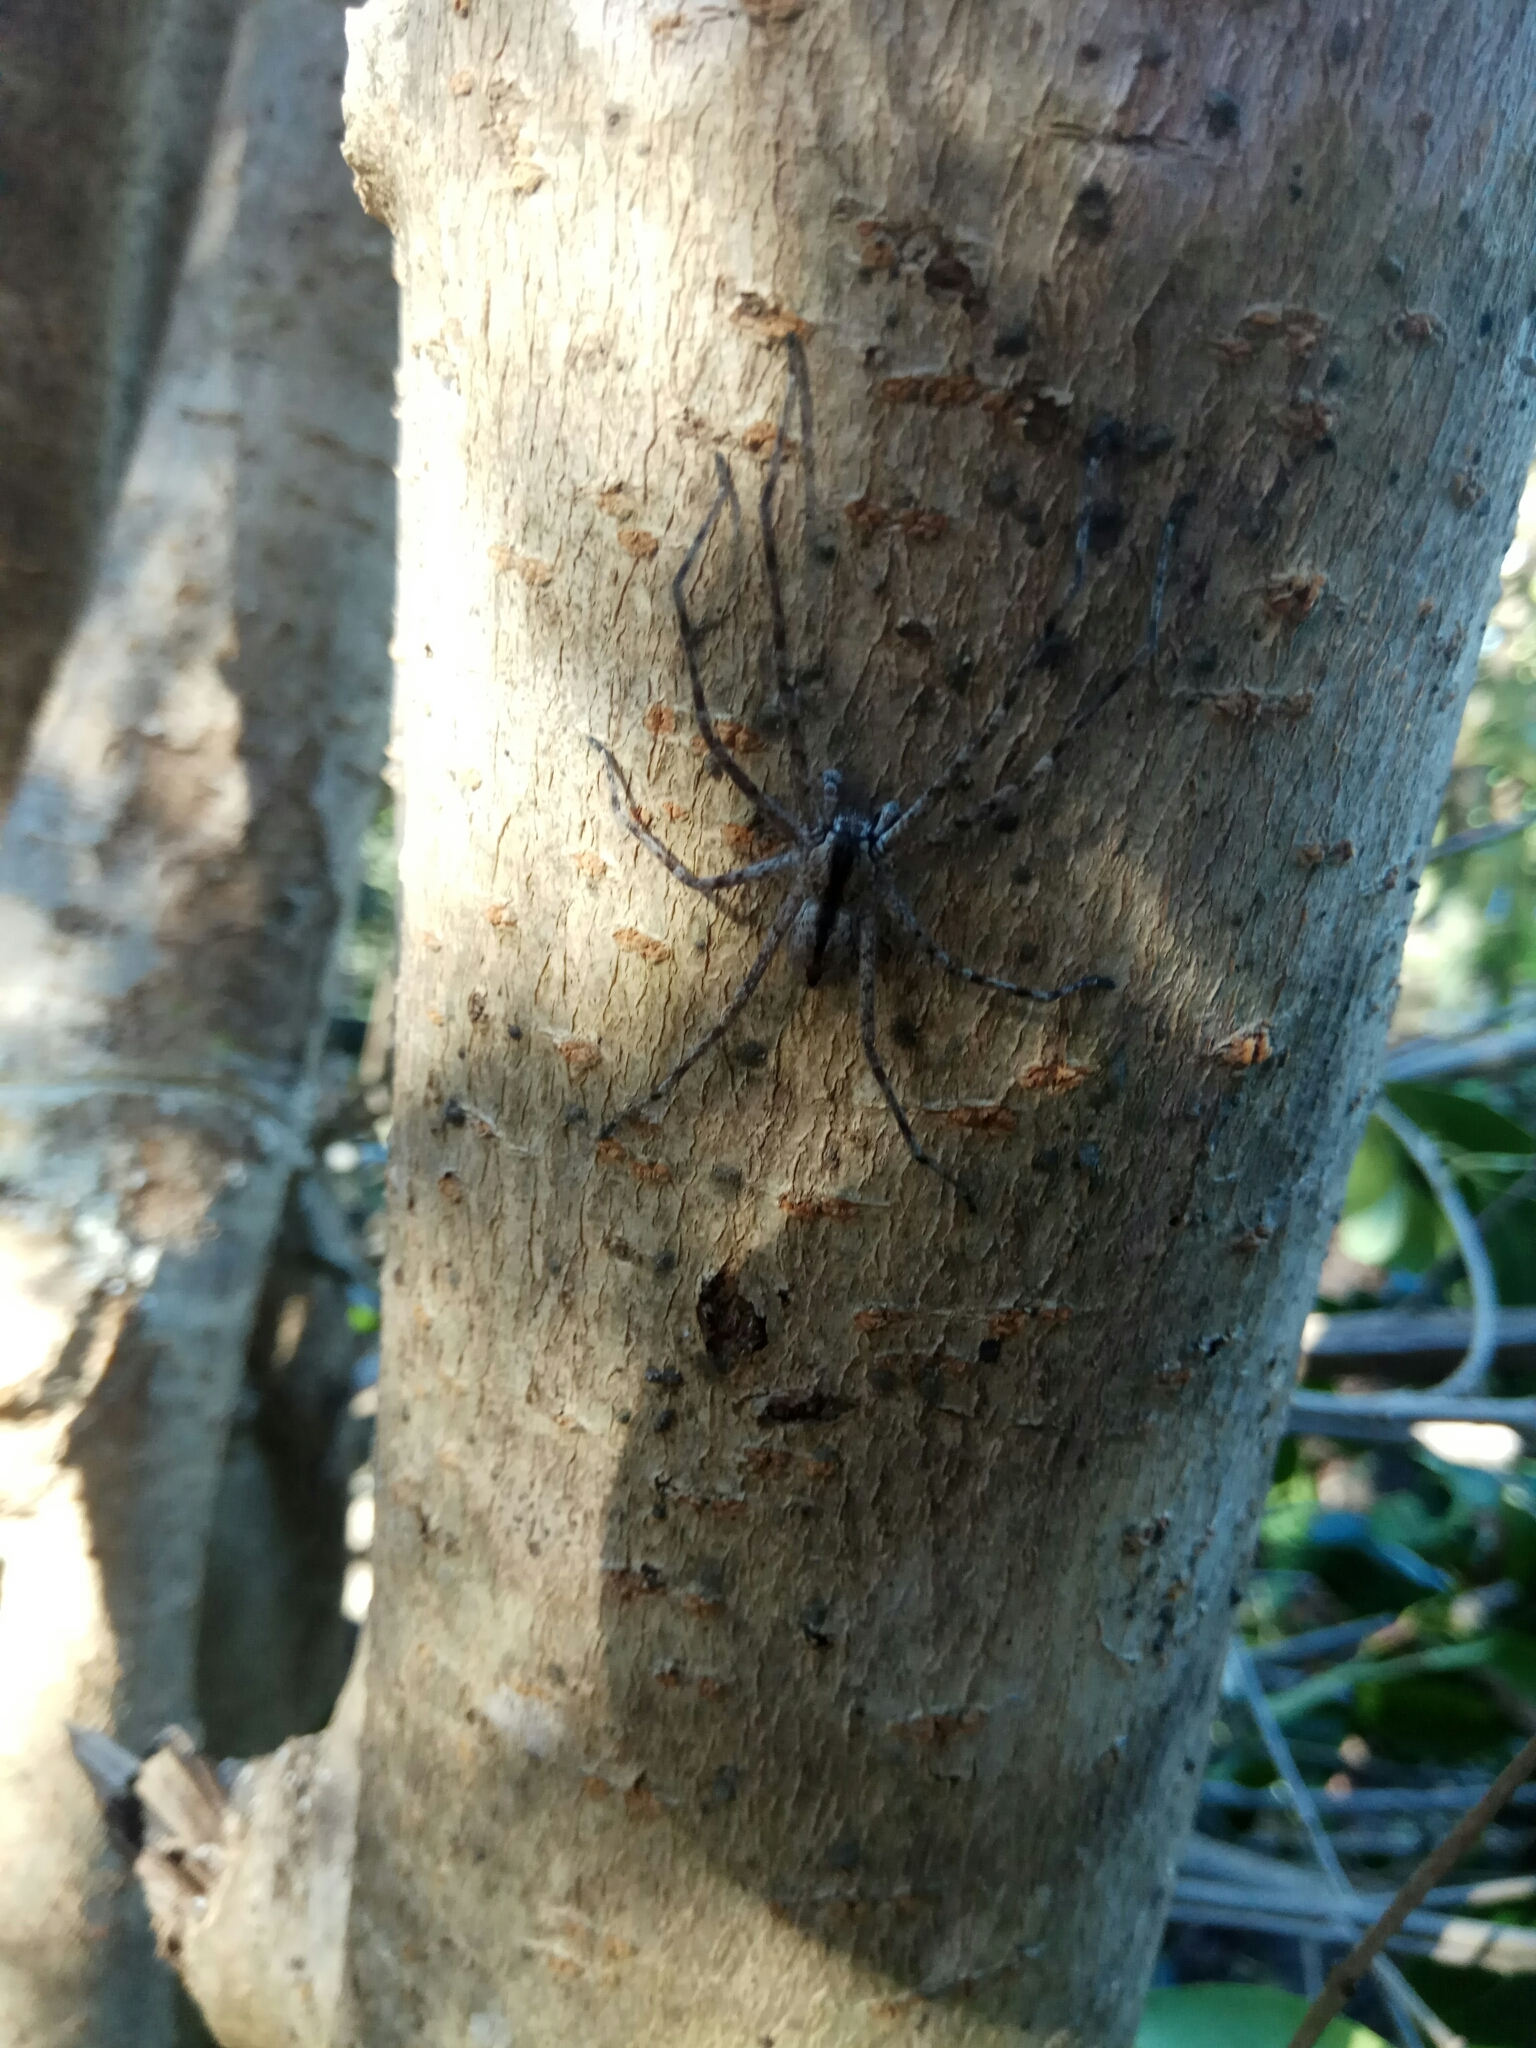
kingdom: Animalia
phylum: Arthropoda
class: Arachnida
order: Araneae
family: Sparassidae
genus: Pediana
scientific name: Pediana regina
